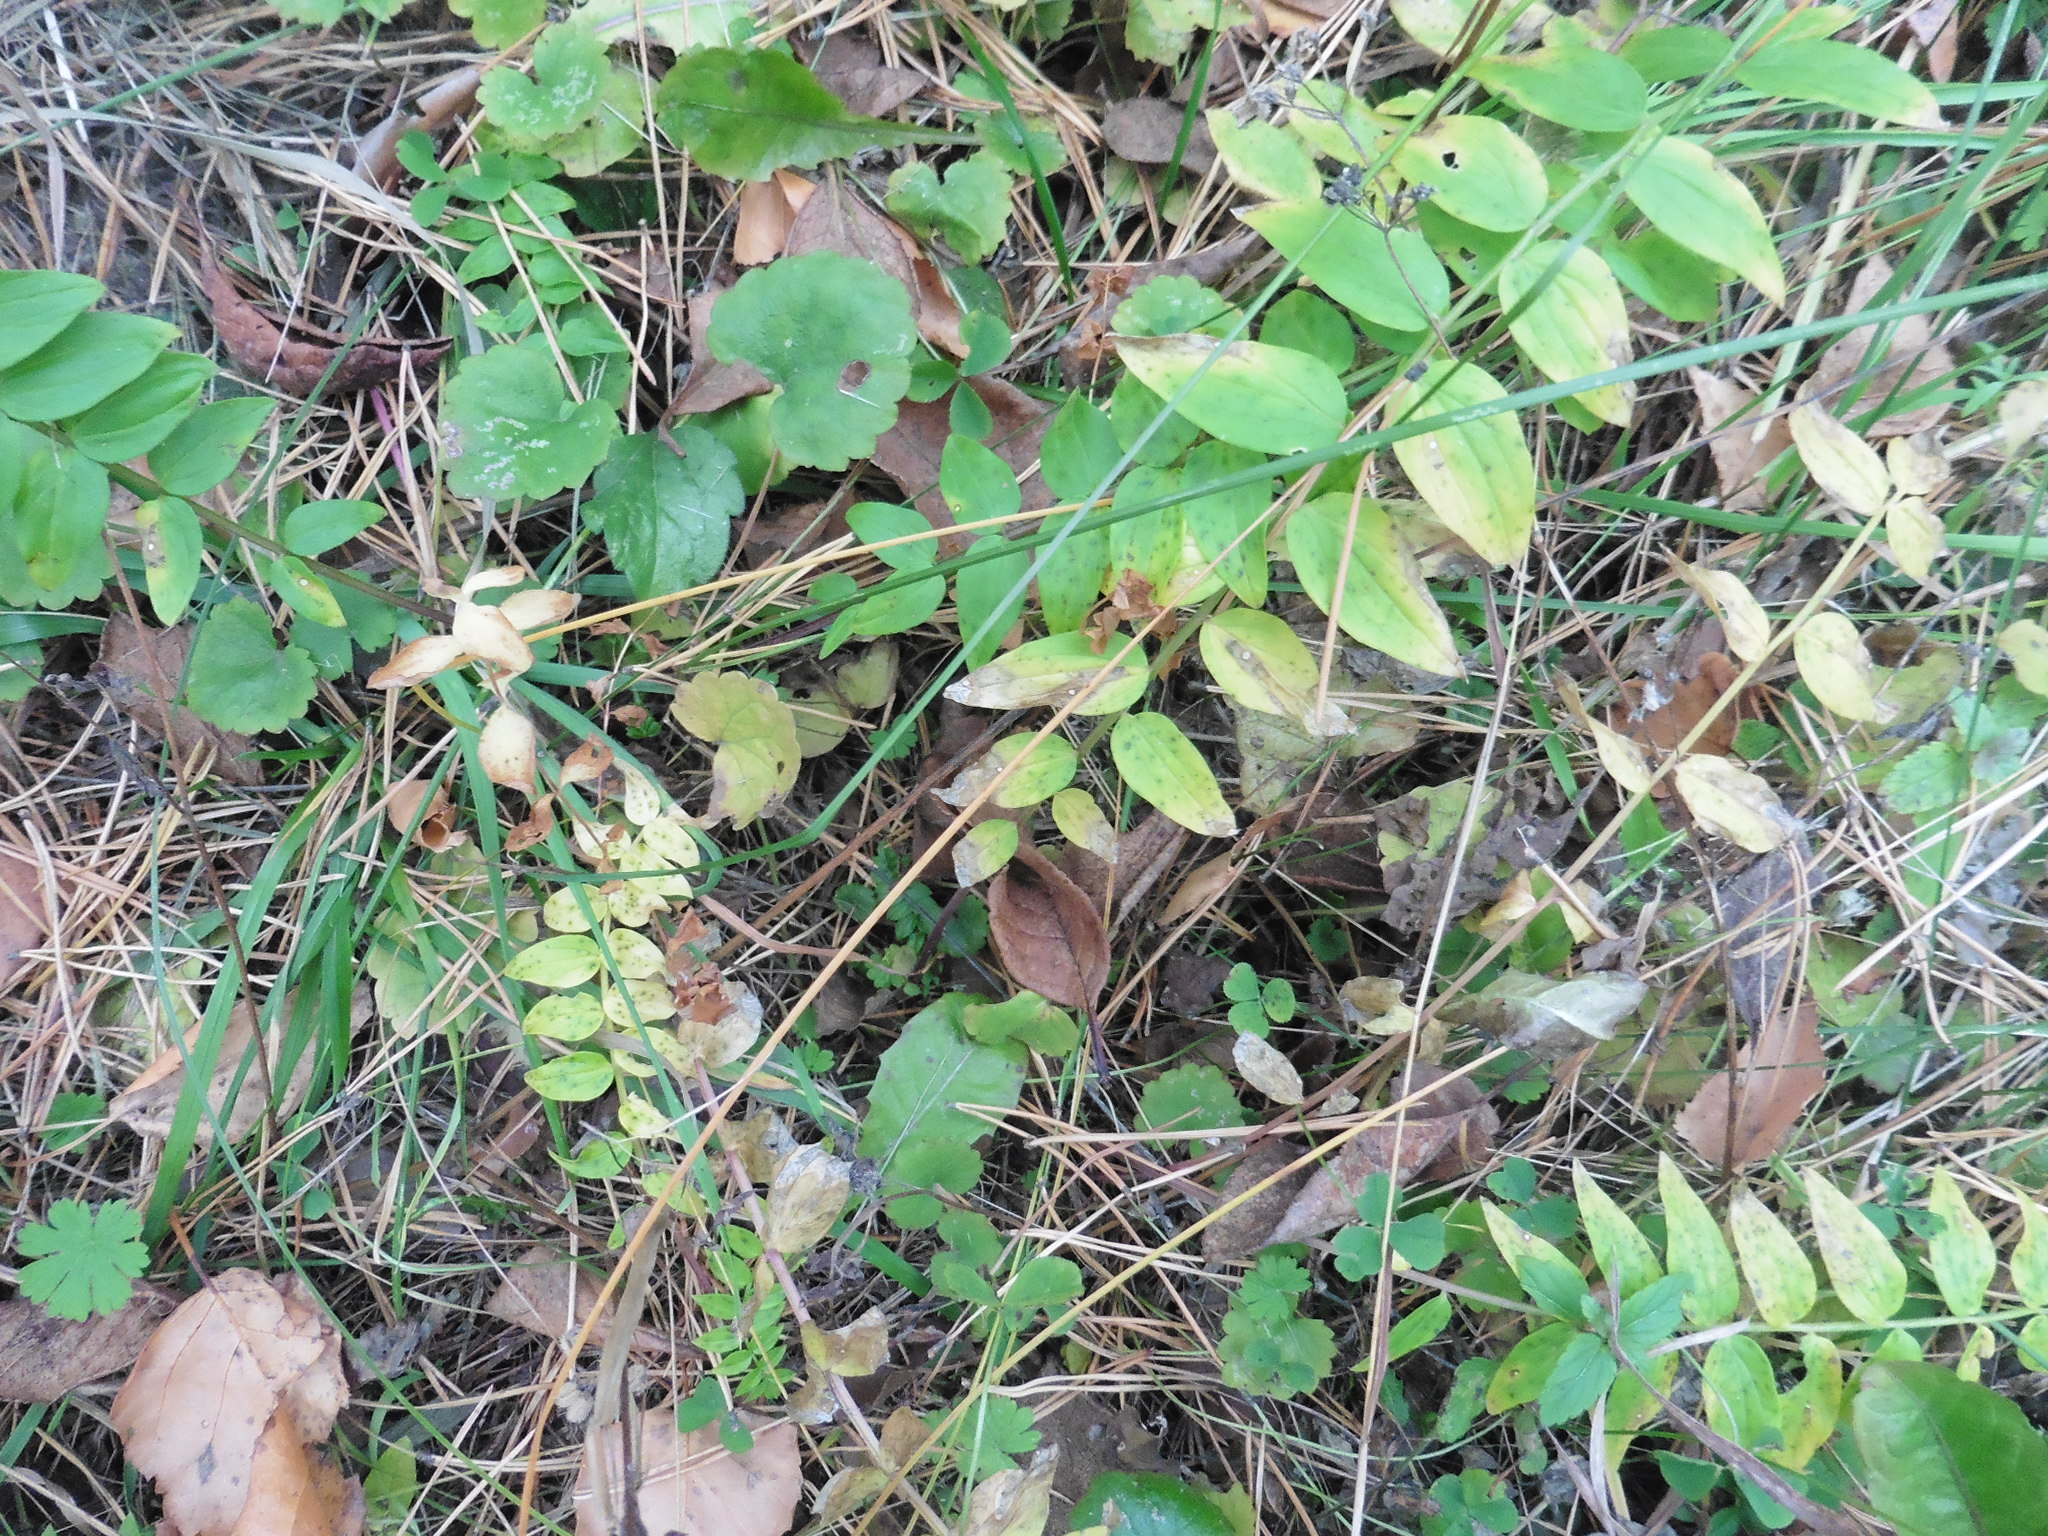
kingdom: Plantae
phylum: Tracheophyta
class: Magnoliopsida
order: Ericales
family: Polemoniaceae
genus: Polemonium
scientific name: Polemonium caeruleum
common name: Jacob's-ladder
